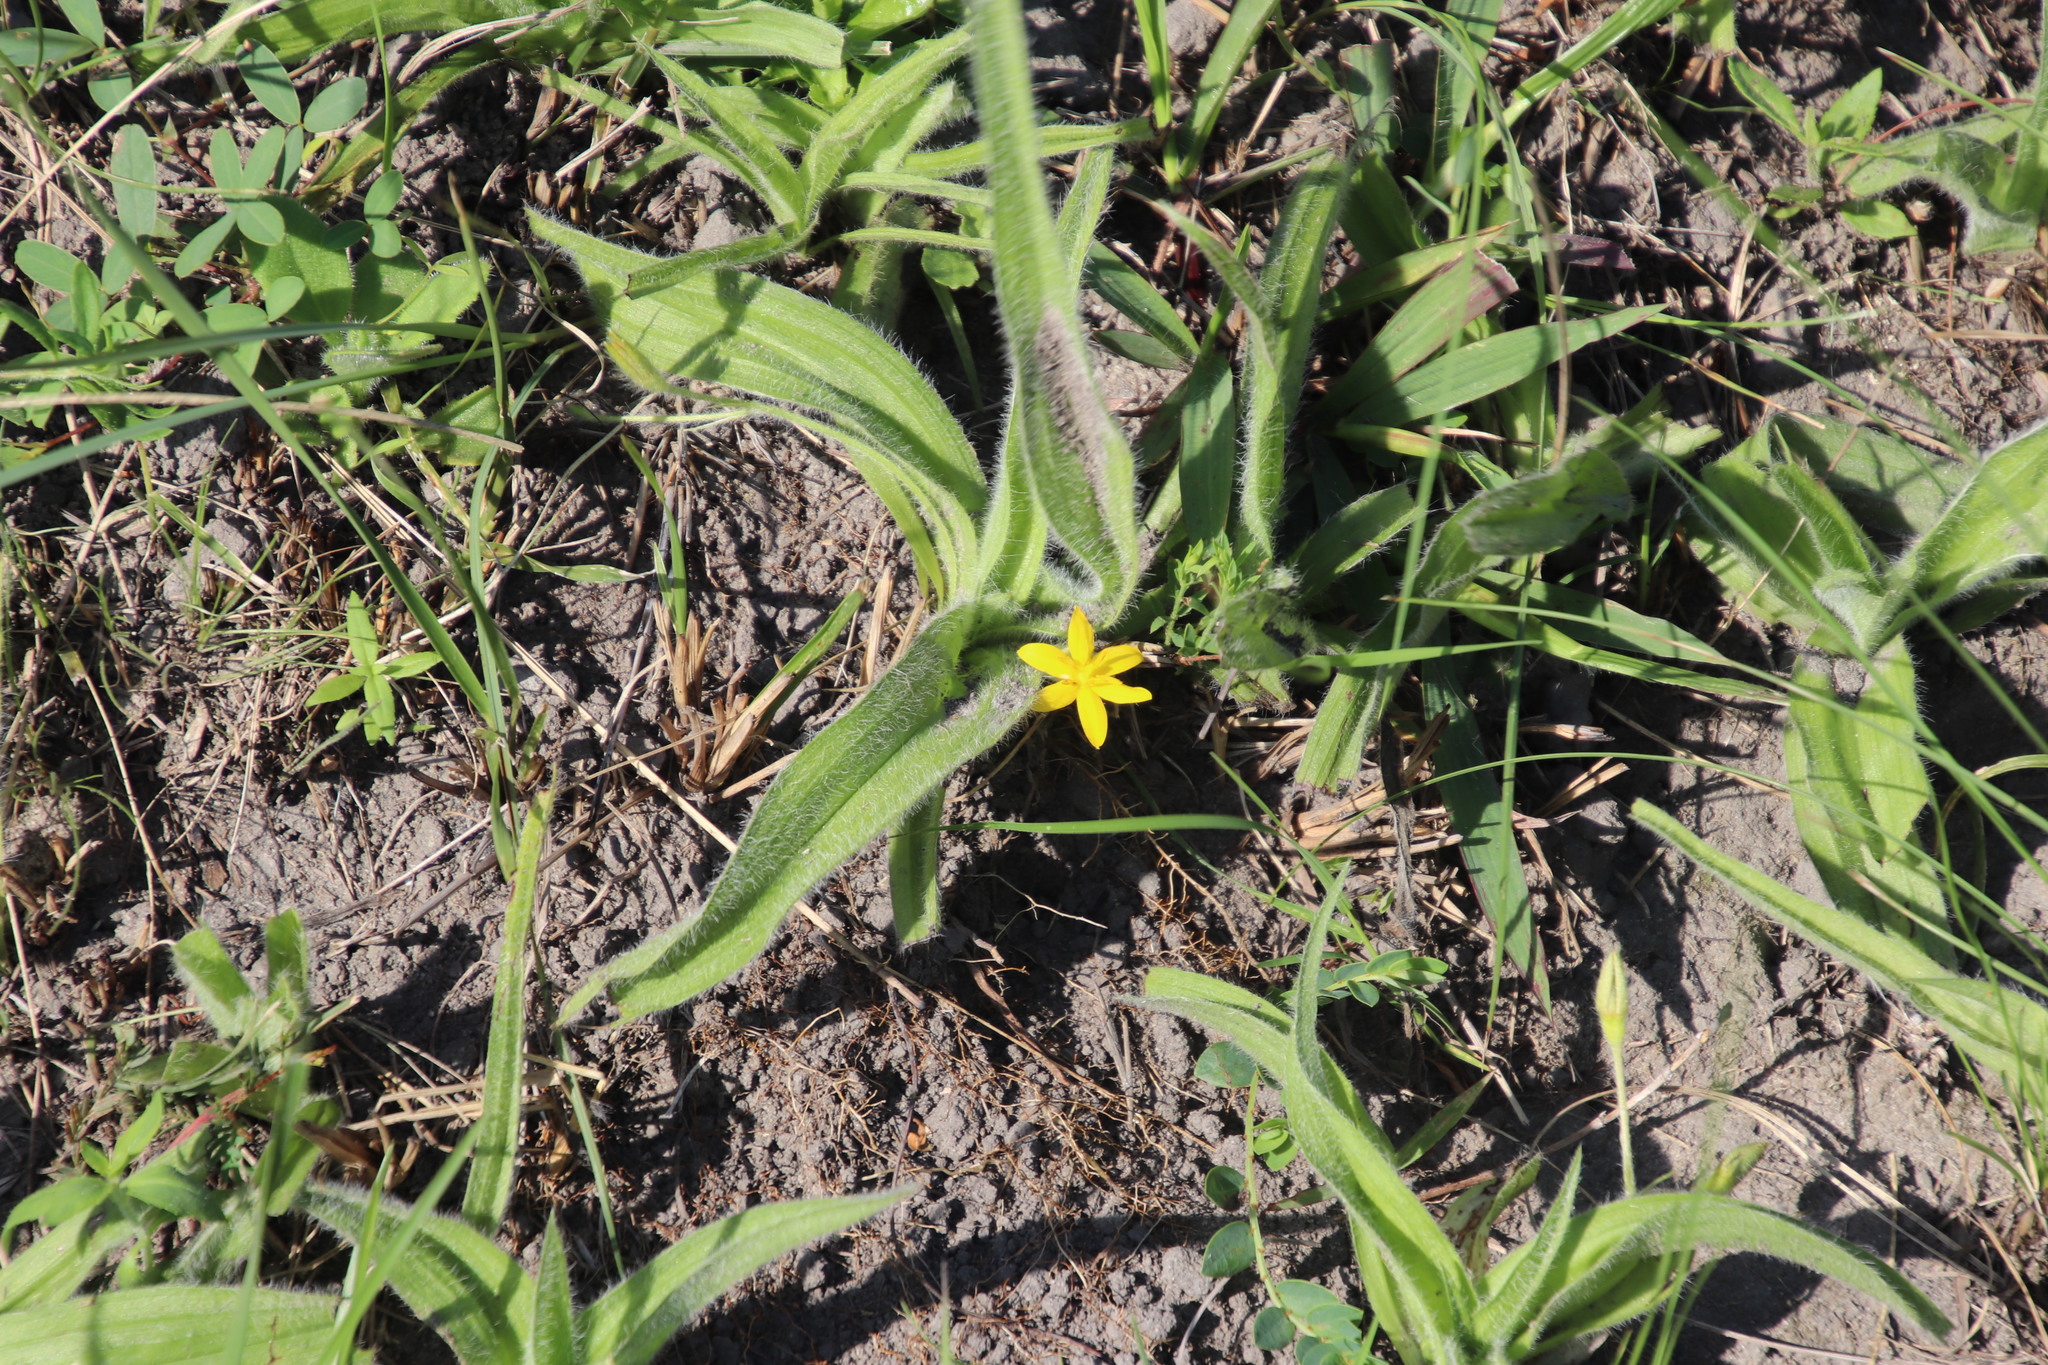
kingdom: Plantae
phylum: Tracheophyta
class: Liliopsida
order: Asparagales
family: Hypoxidaceae
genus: Hypoxis
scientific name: Hypoxis hemerocallidea
